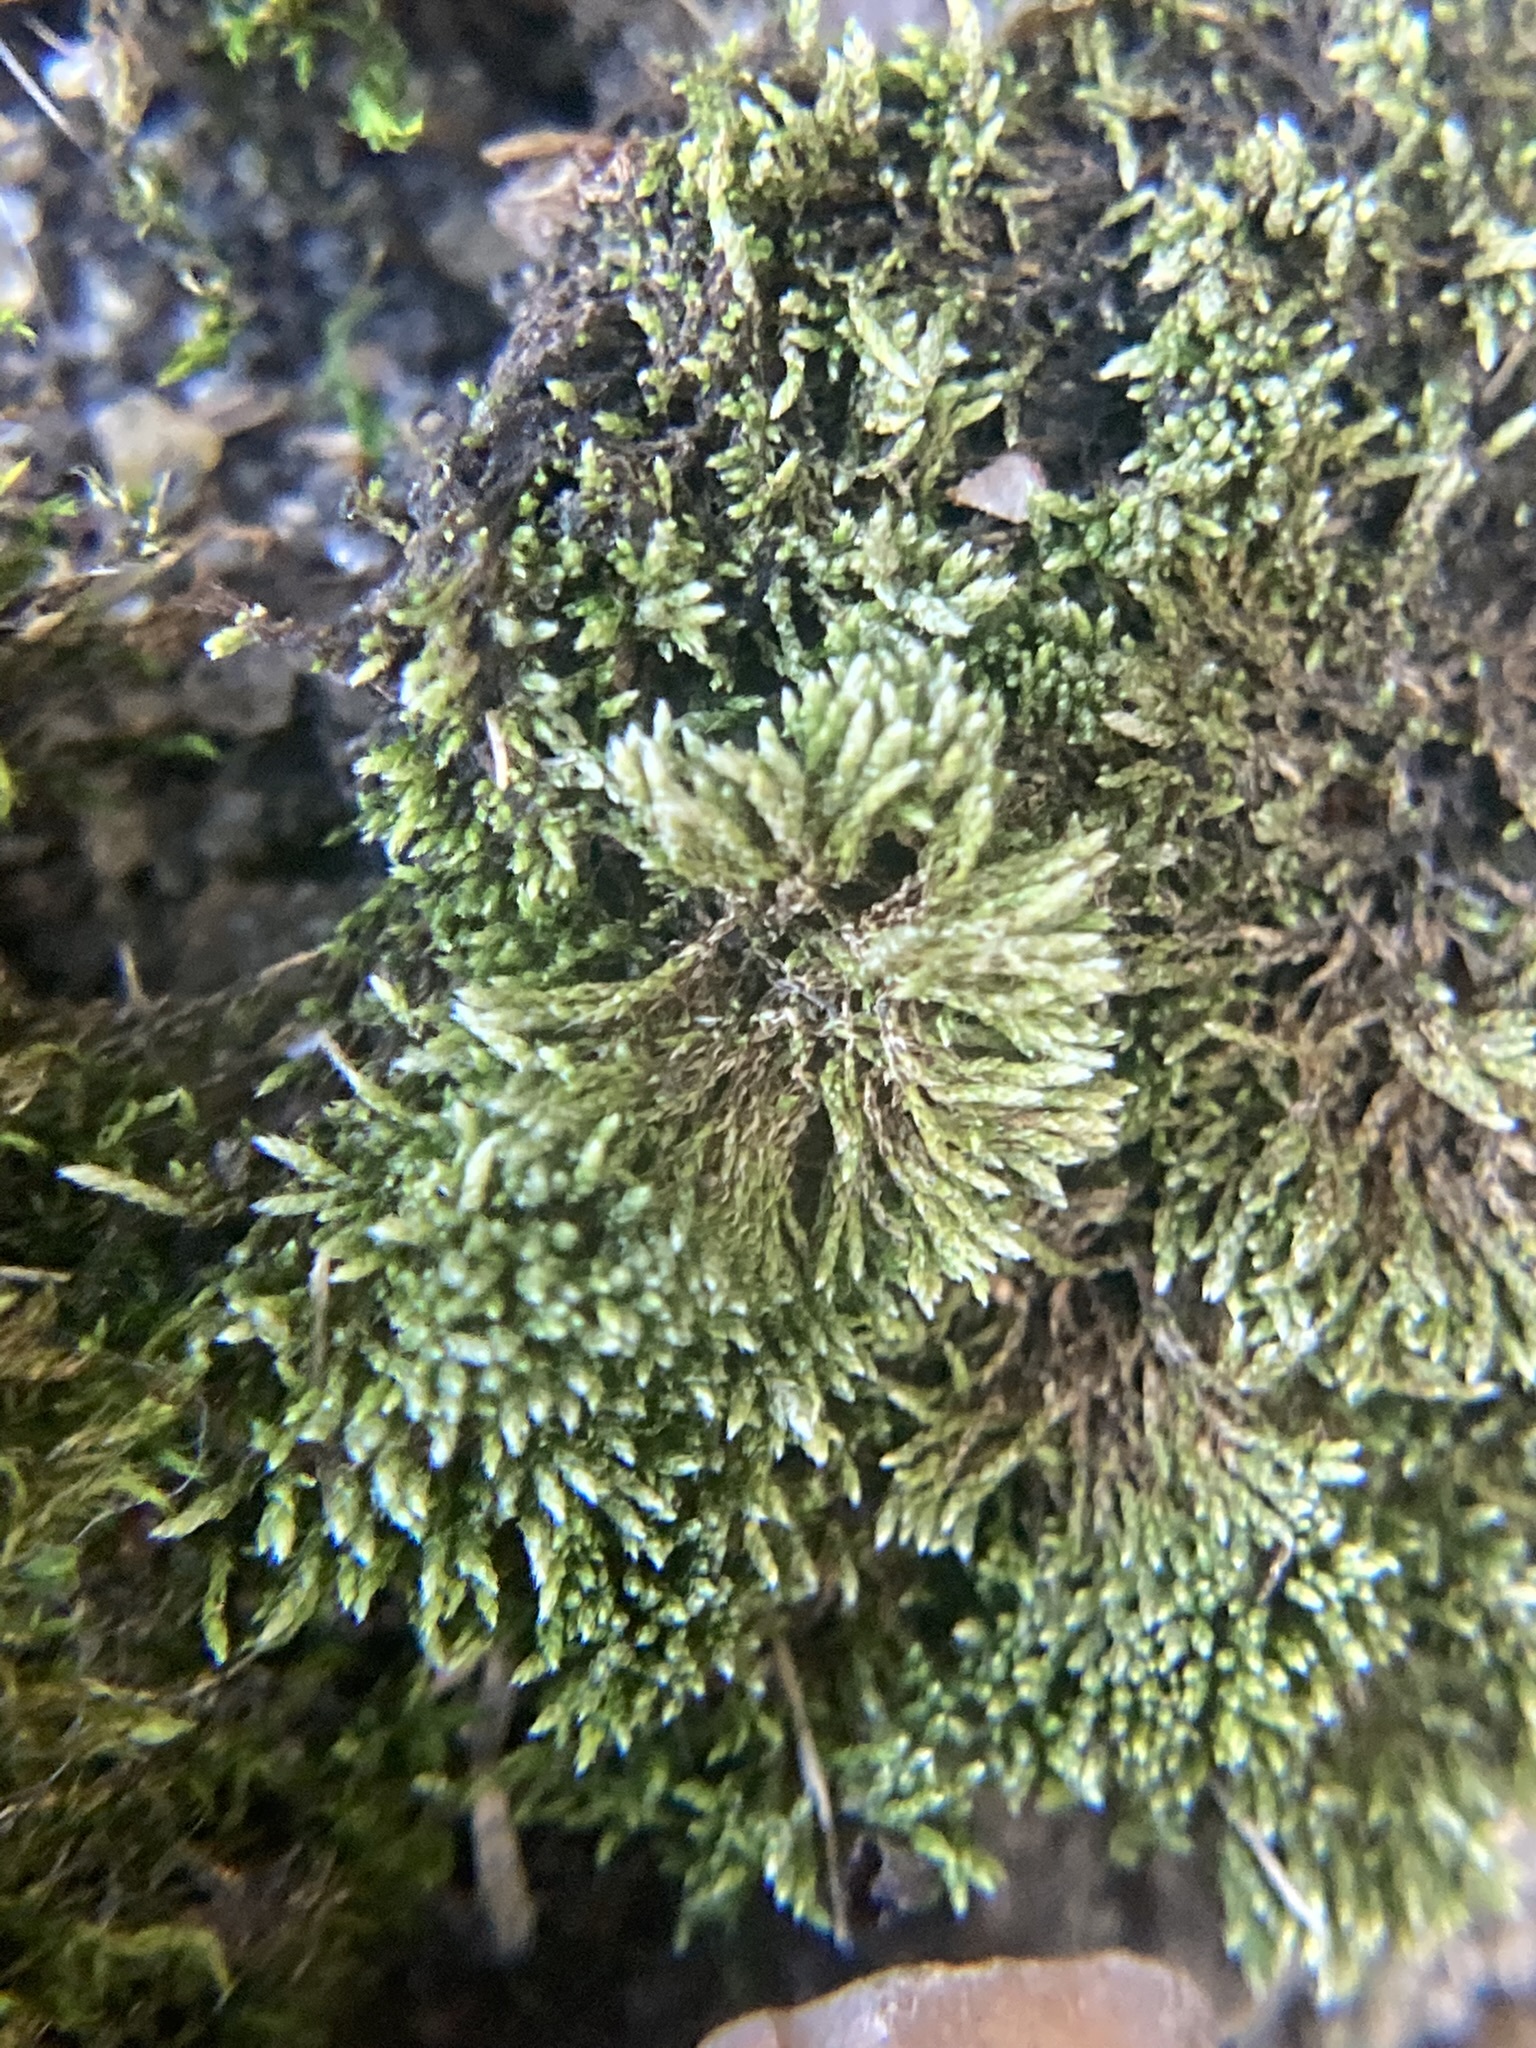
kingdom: Plantae
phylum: Bryophyta
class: Bryopsida
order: Hypnales
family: Brachytheciaceae
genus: Bryoandersonia
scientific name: Bryoandersonia illecebra
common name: Spoon-leaved moss
